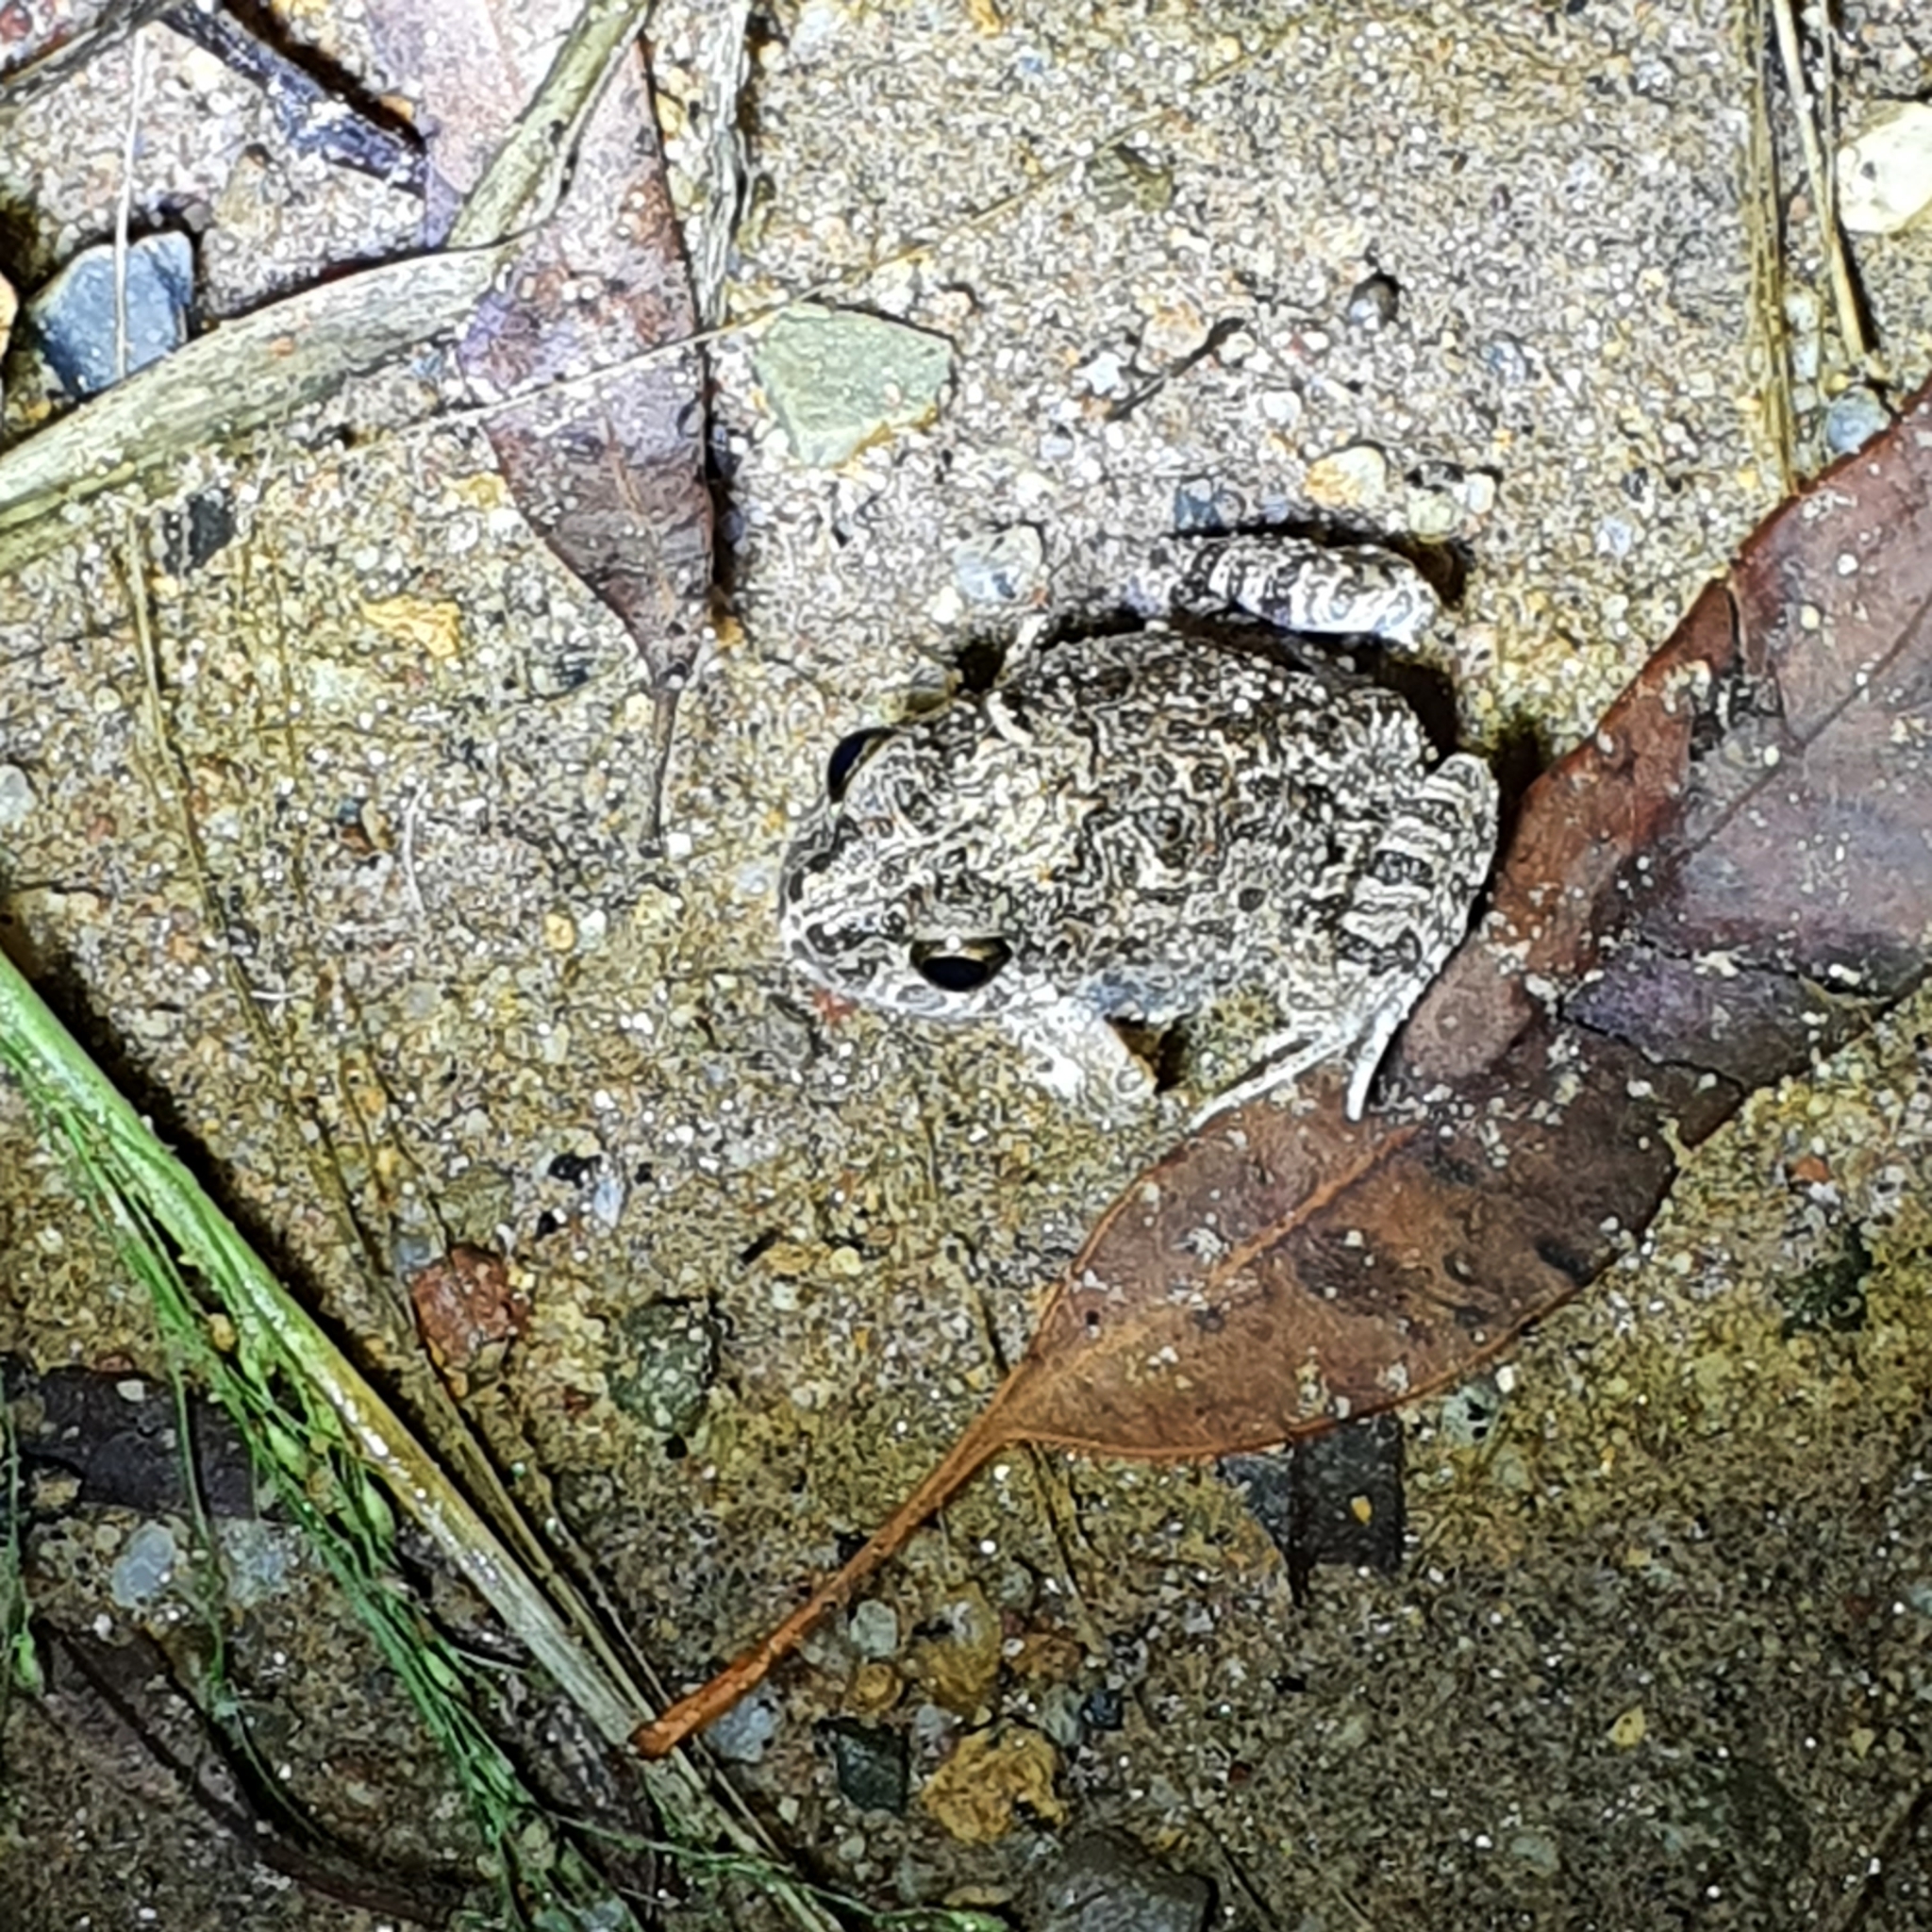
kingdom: Animalia
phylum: Chordata
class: Amphibia
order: Anura
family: Limnodynastidae
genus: Platyplectrum
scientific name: Platyplectrum ornatum
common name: Ornate burrowing frog
